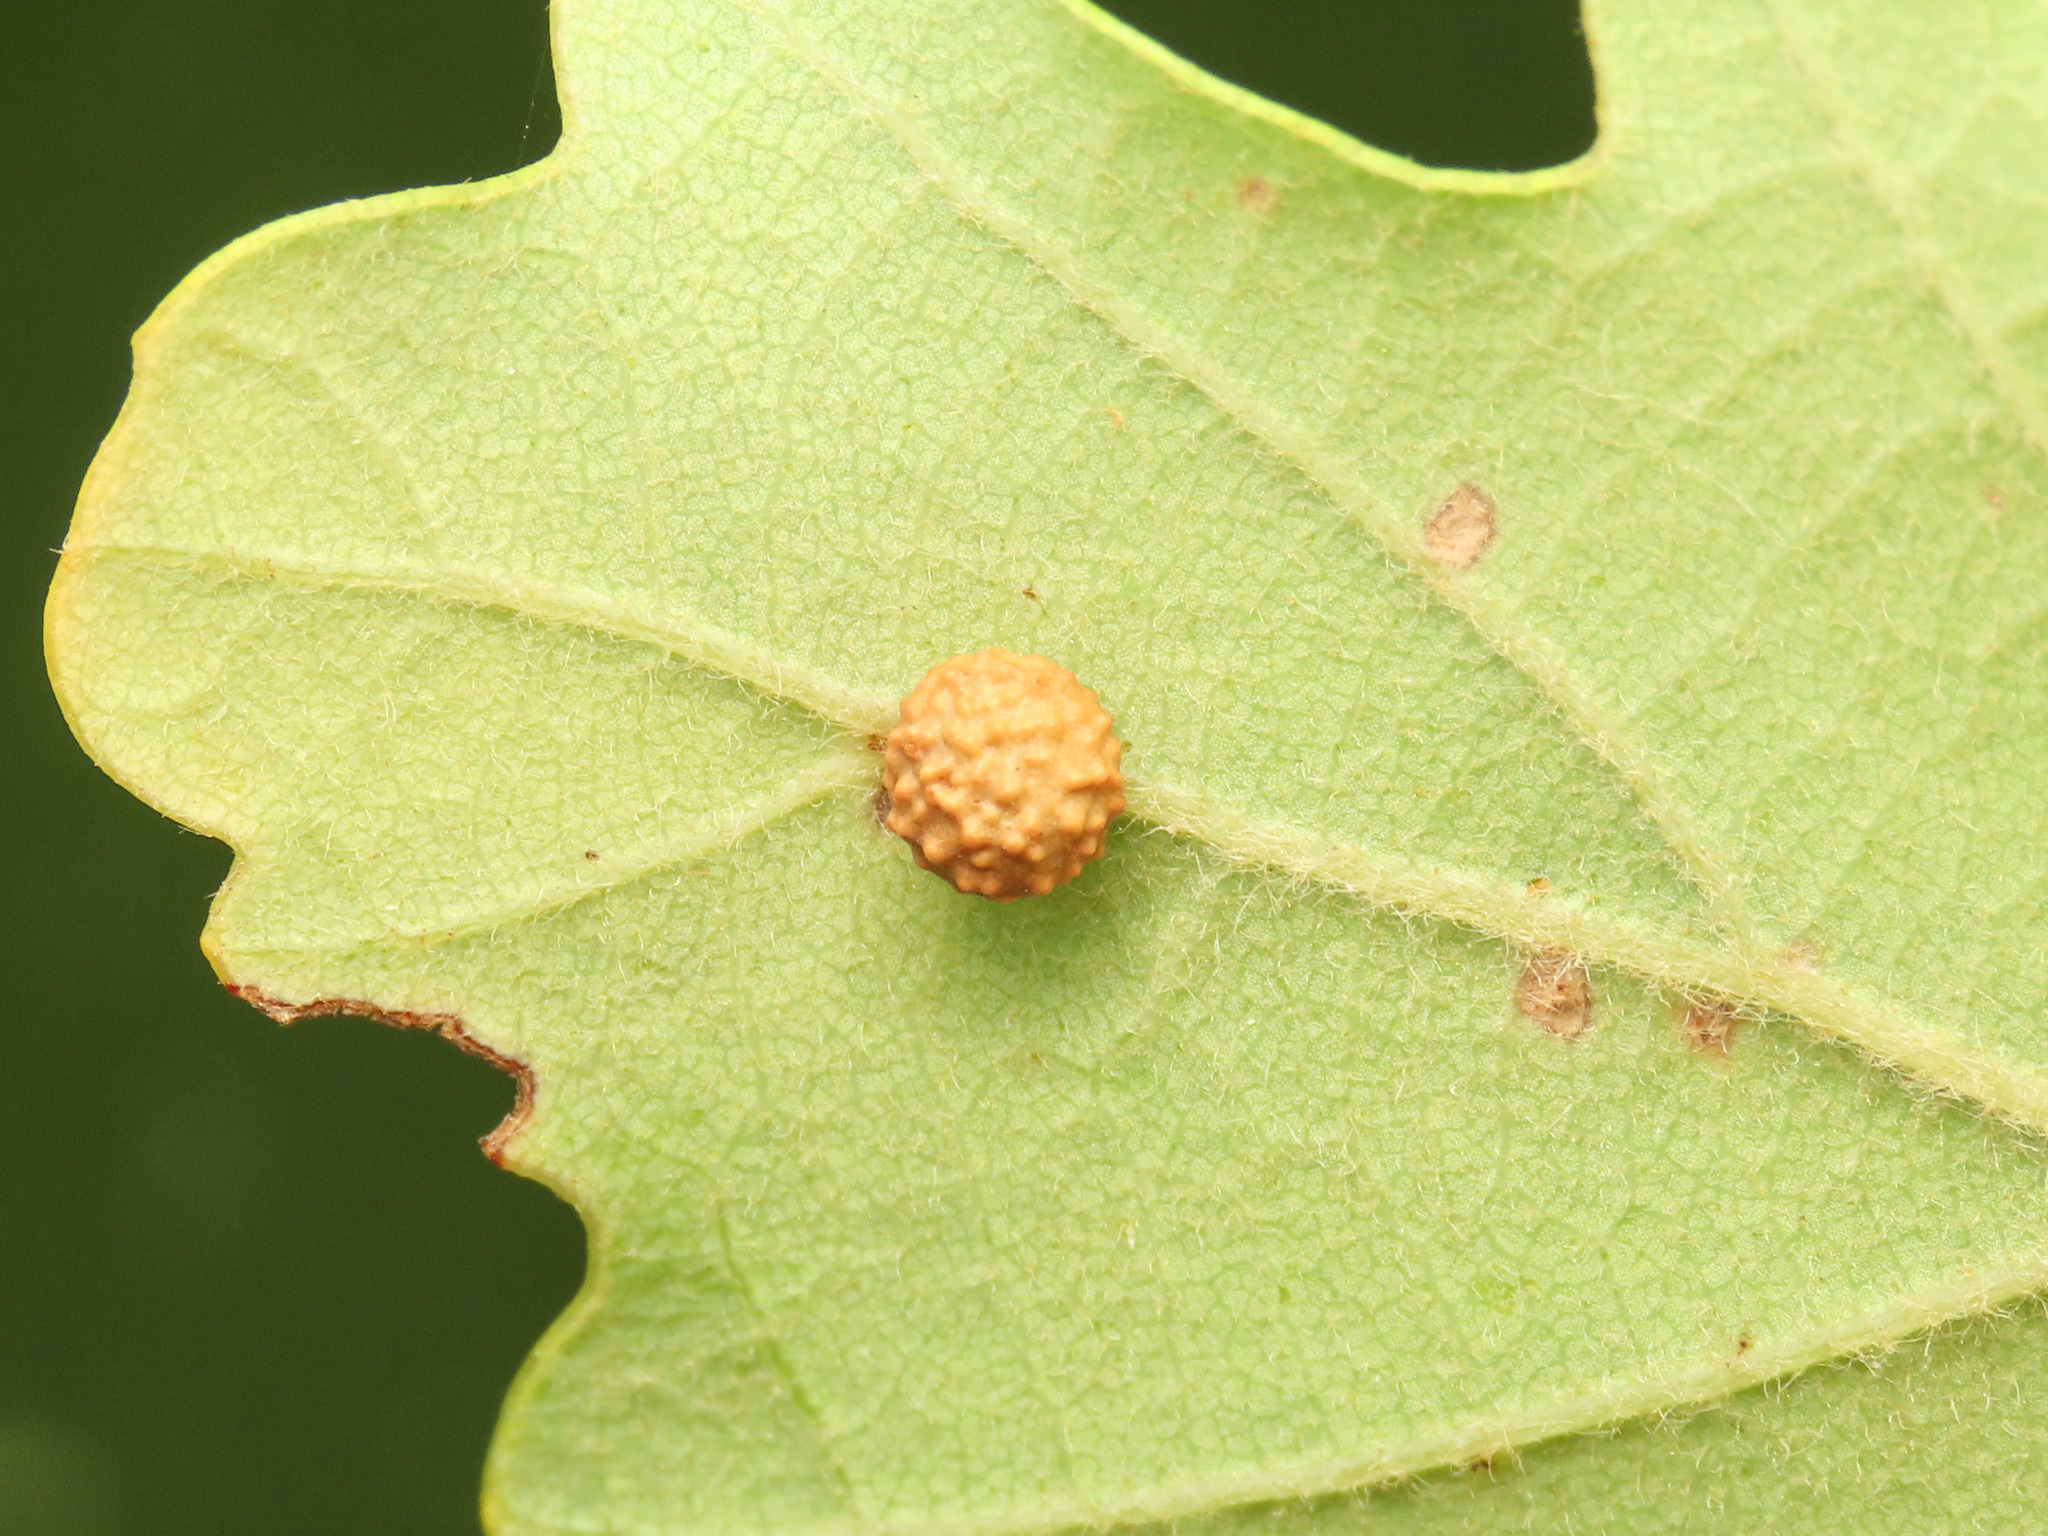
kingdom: Animalia
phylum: Arthropoda
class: Insecta
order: Hymenoptera
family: Cynipidae
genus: Cynips
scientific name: Cynips agama
